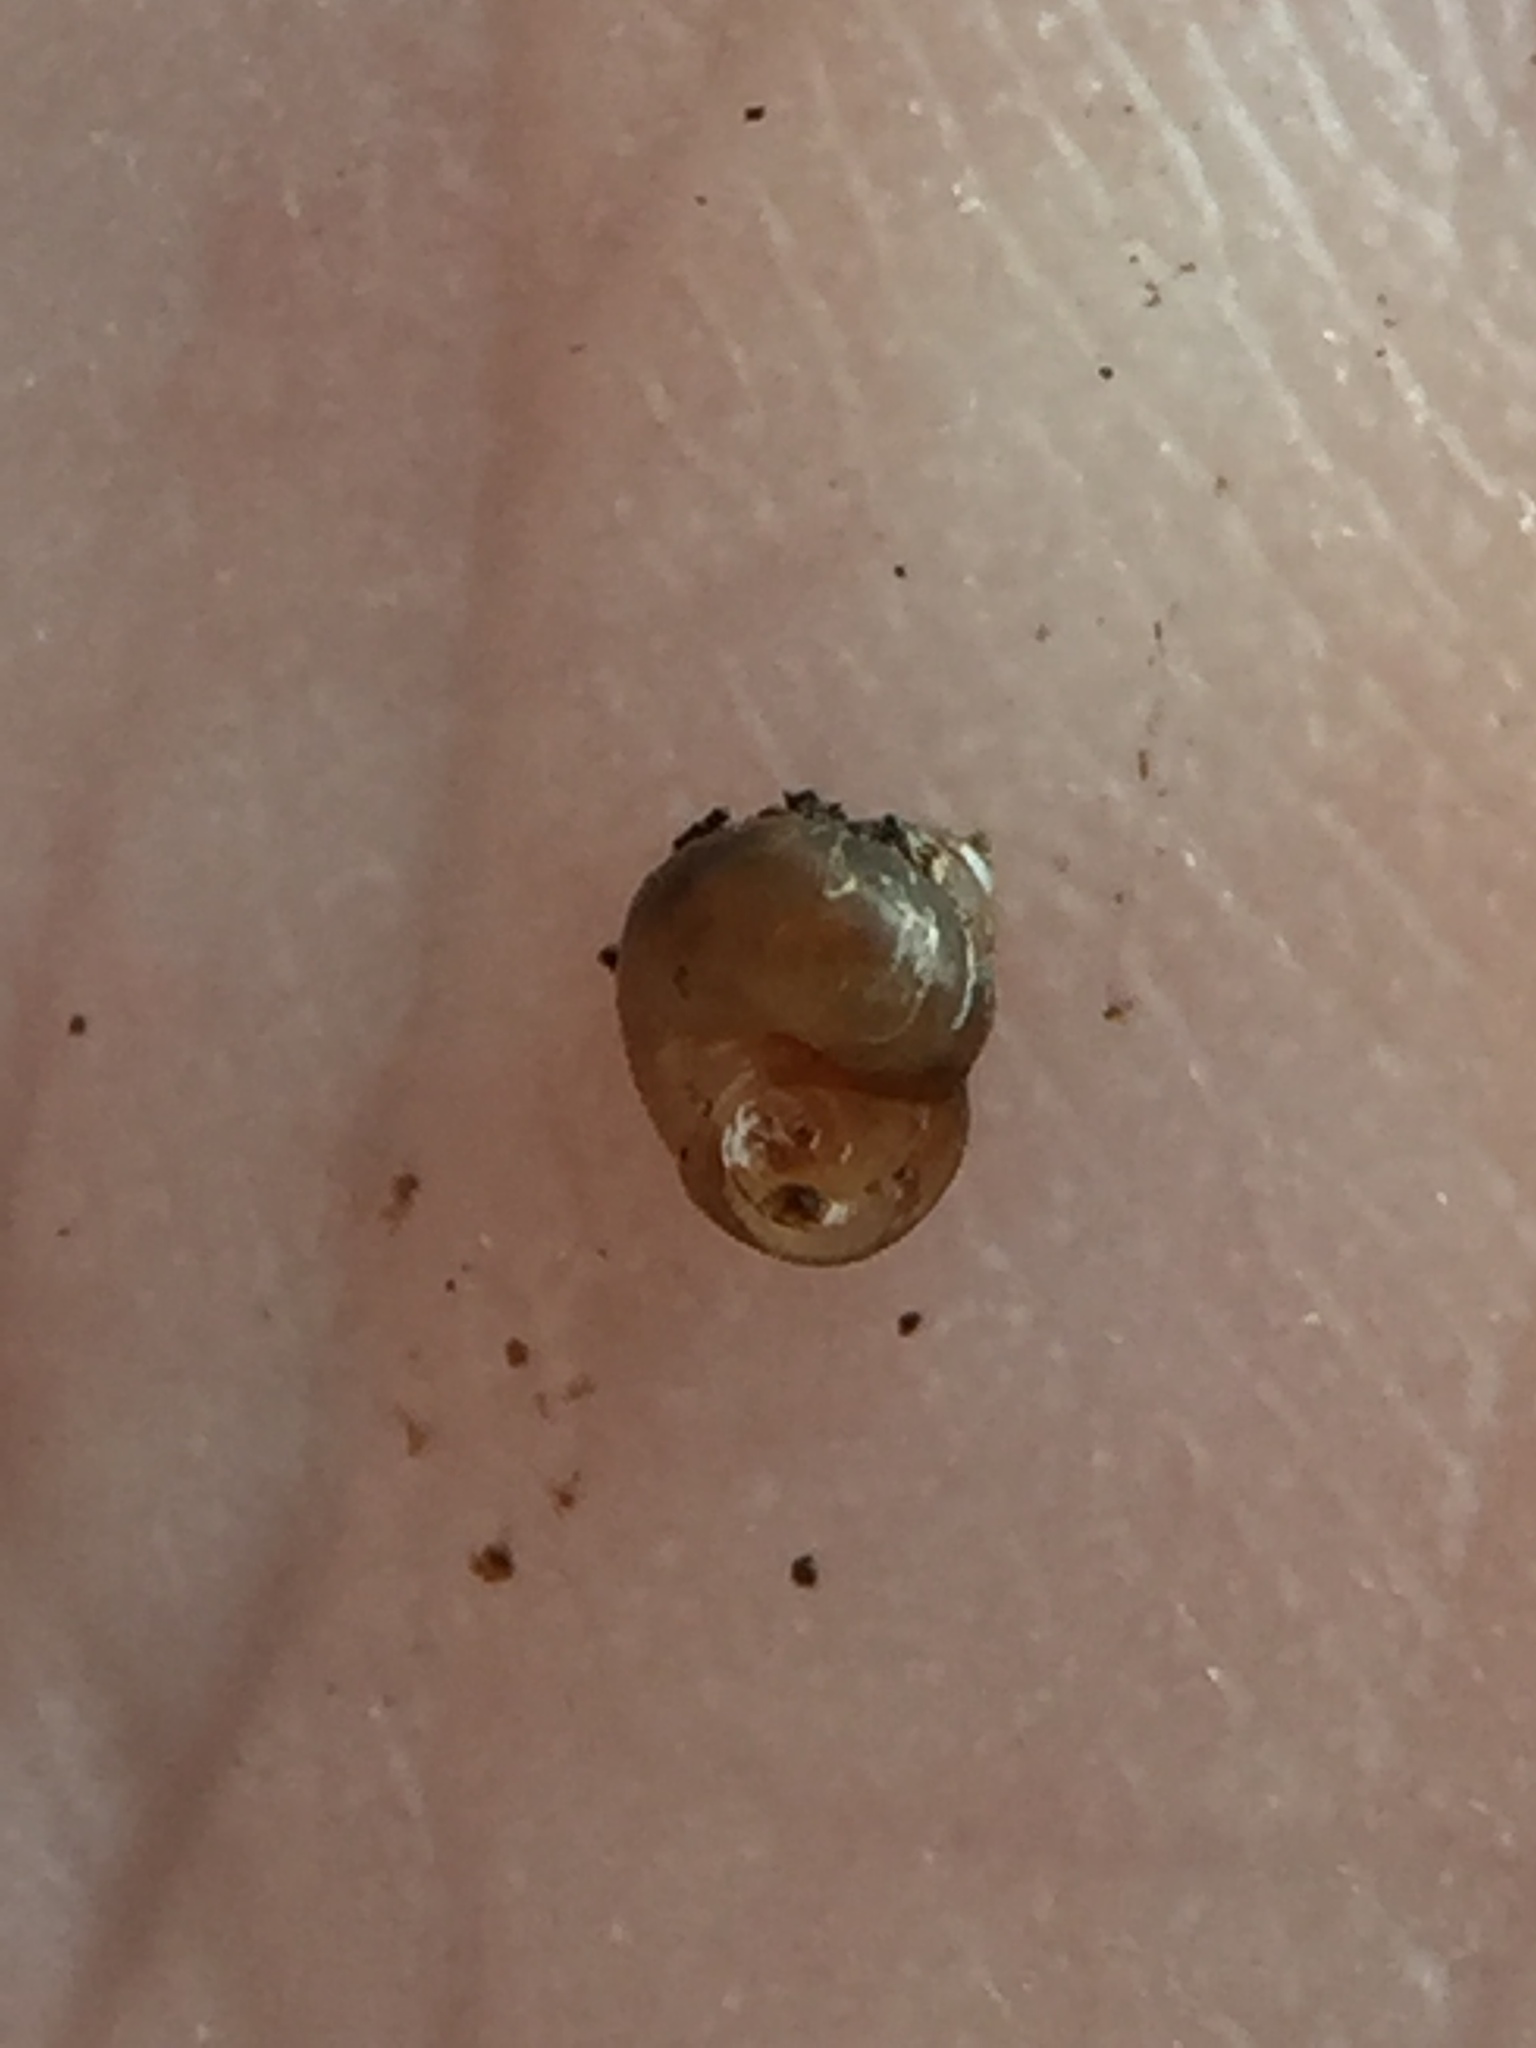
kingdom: Animalia
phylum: Mollusca
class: Gastropoda
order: Littorinimorpha
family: Assimineidae
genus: Suterilla
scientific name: Suterilla neozelanica
